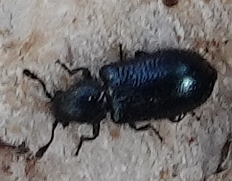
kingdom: Animalia
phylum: Arthropoda
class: Insecta
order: Coleoptera
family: Cleridae
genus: Necrobia
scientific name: Necrobia violacea
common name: Violet checkered beetle
